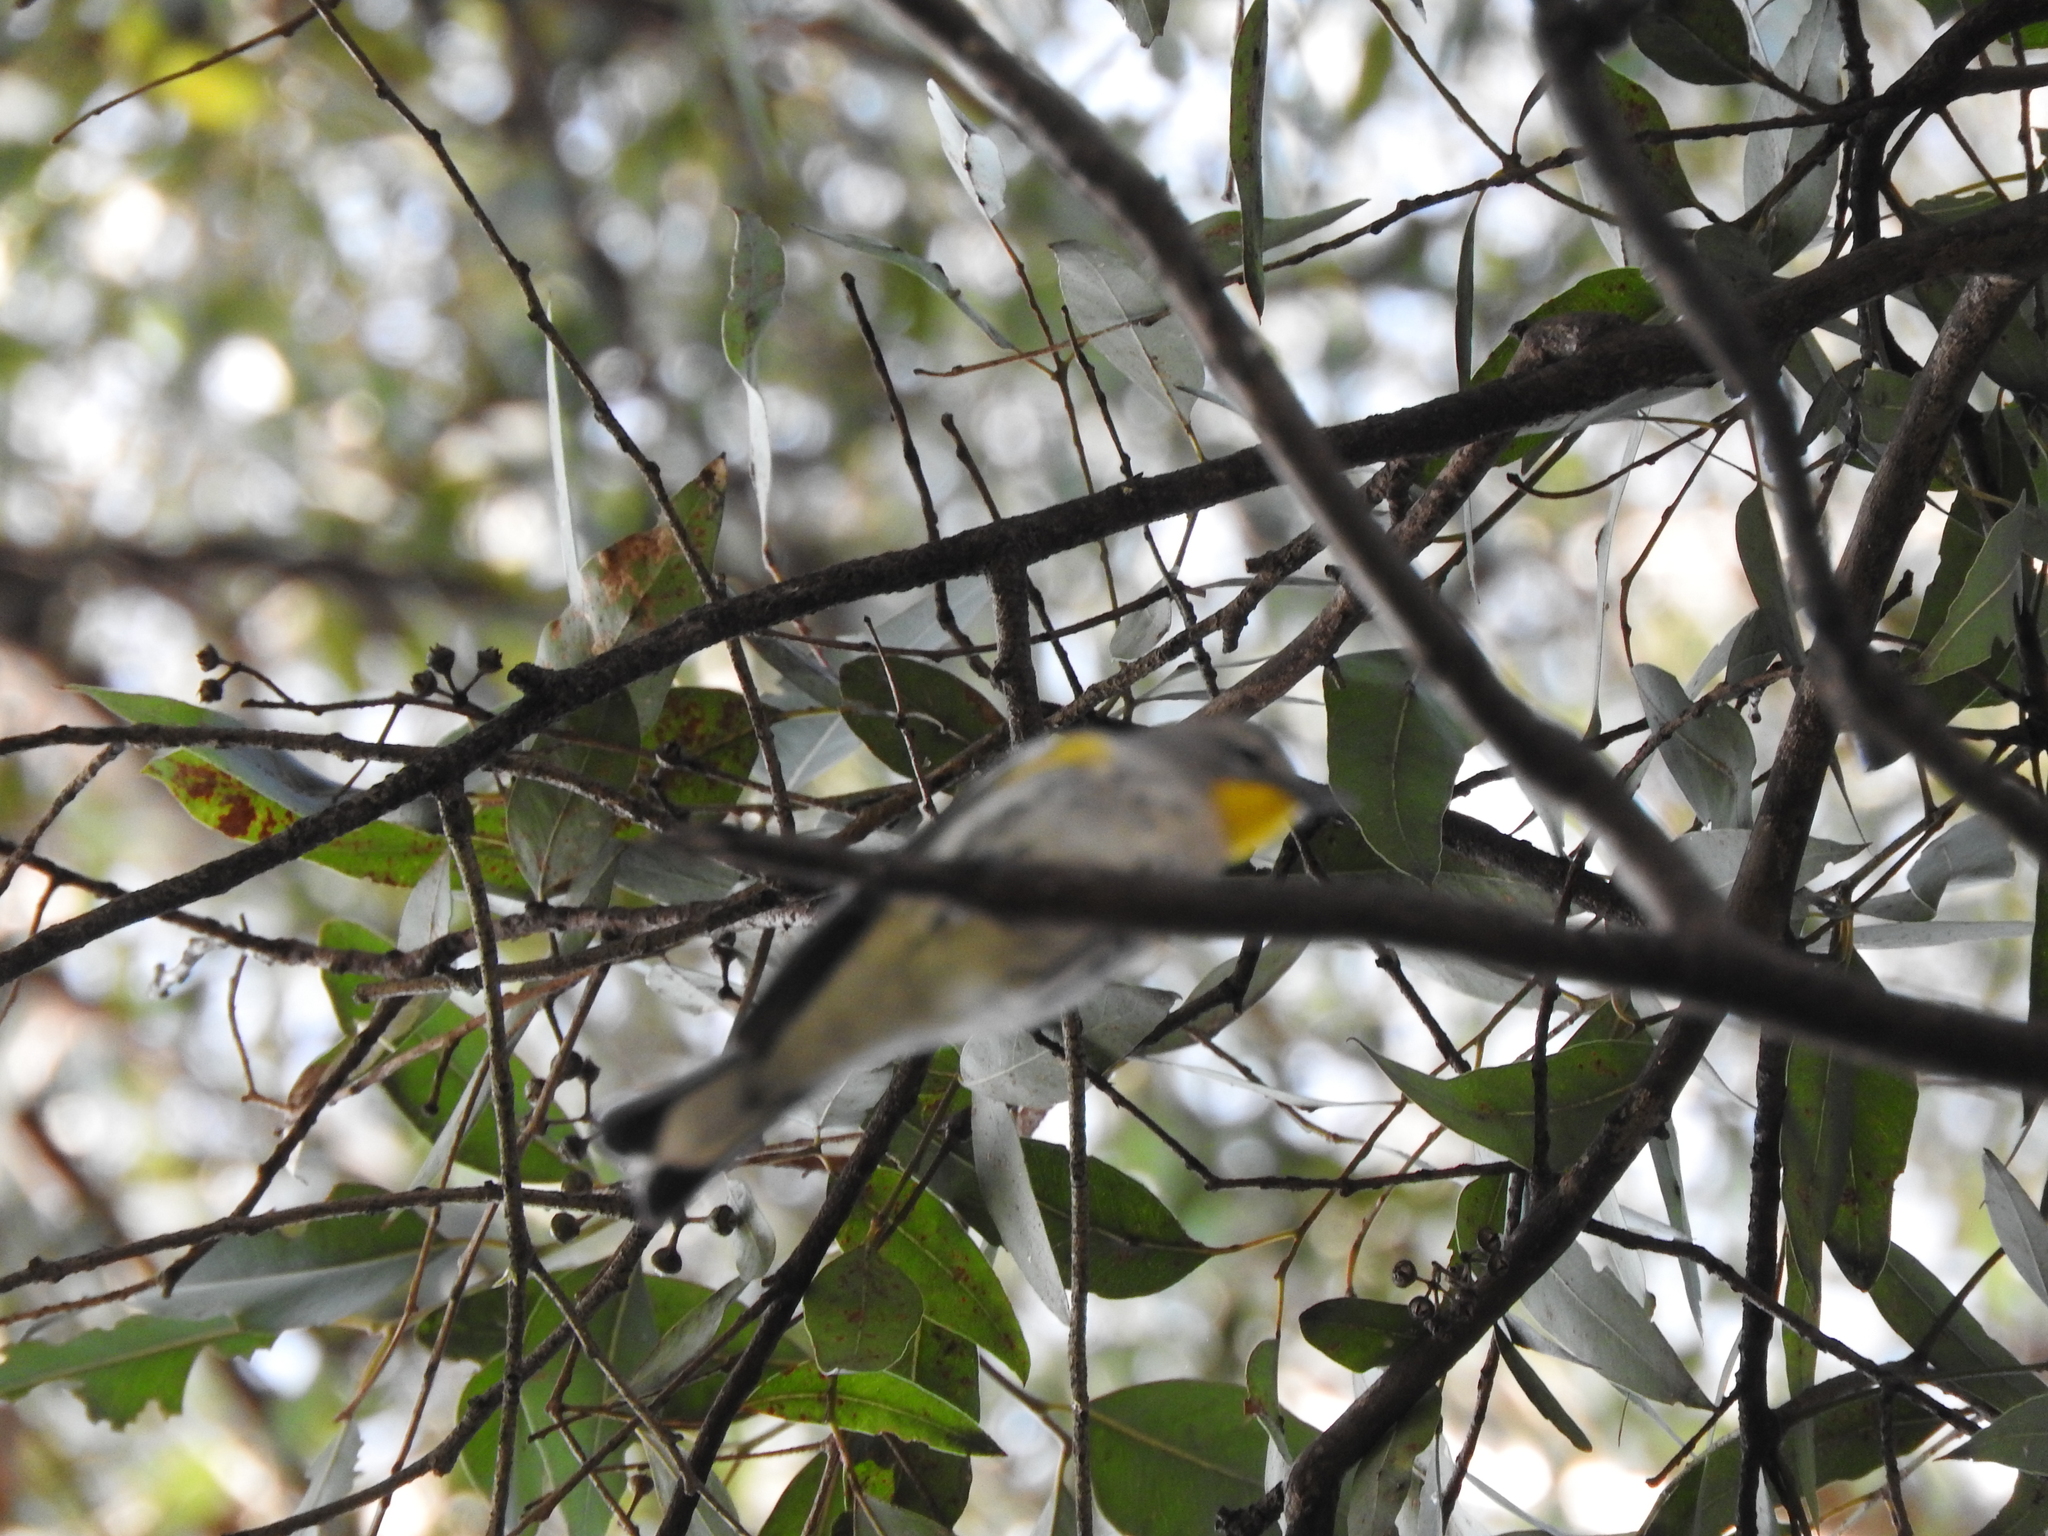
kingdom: Animalia
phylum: Chordata
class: Aves
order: Passeriformes
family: Parulidae
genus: Setophaga
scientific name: Setophaga coronata
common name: Myrtle warbler
